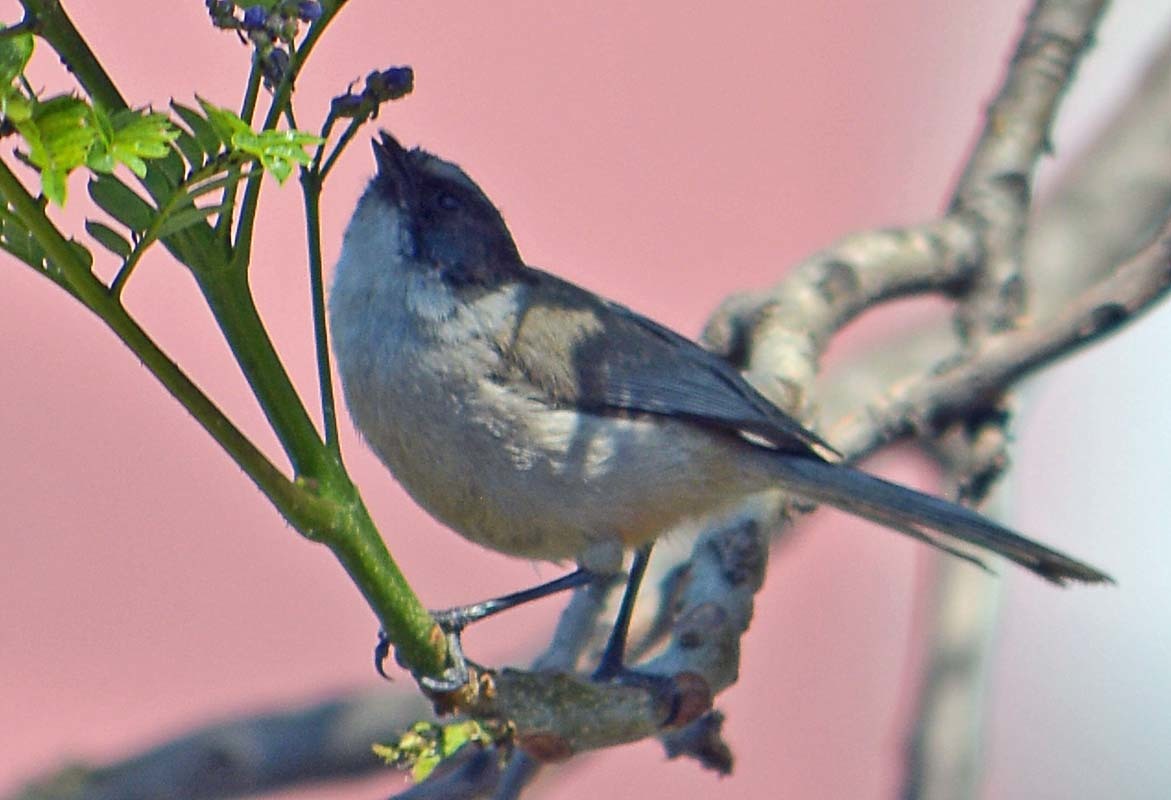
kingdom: Animalia
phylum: Chordata
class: Aves
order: Passeriformes
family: Aegithalidae
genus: Psaltriparus
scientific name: Psaltriparus minimus
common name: American bushtit
